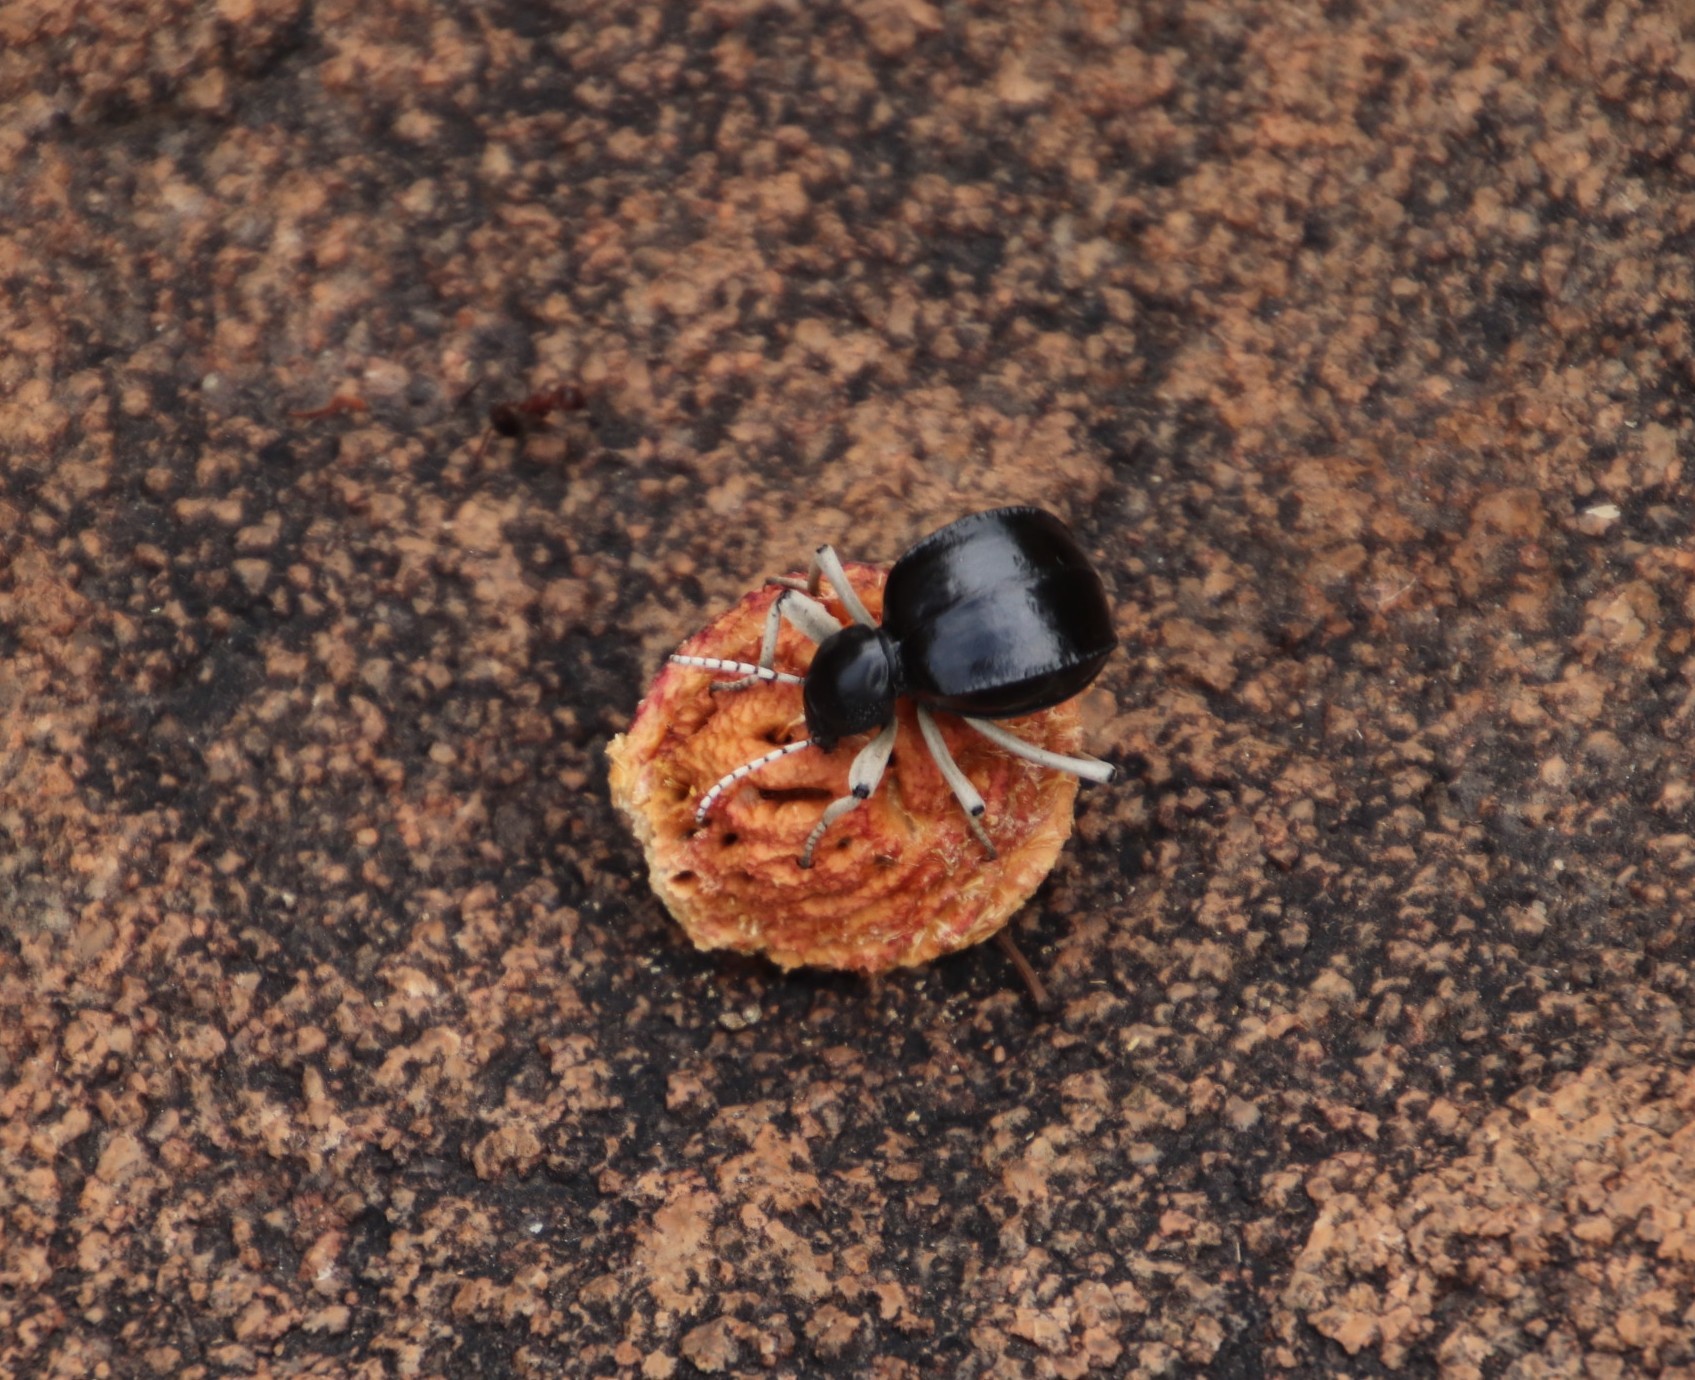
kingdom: Animalia
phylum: Arthropoda
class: Insecta
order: Coleoptera
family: Tenebrionidae
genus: Dichtha
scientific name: Dichtha cubica
